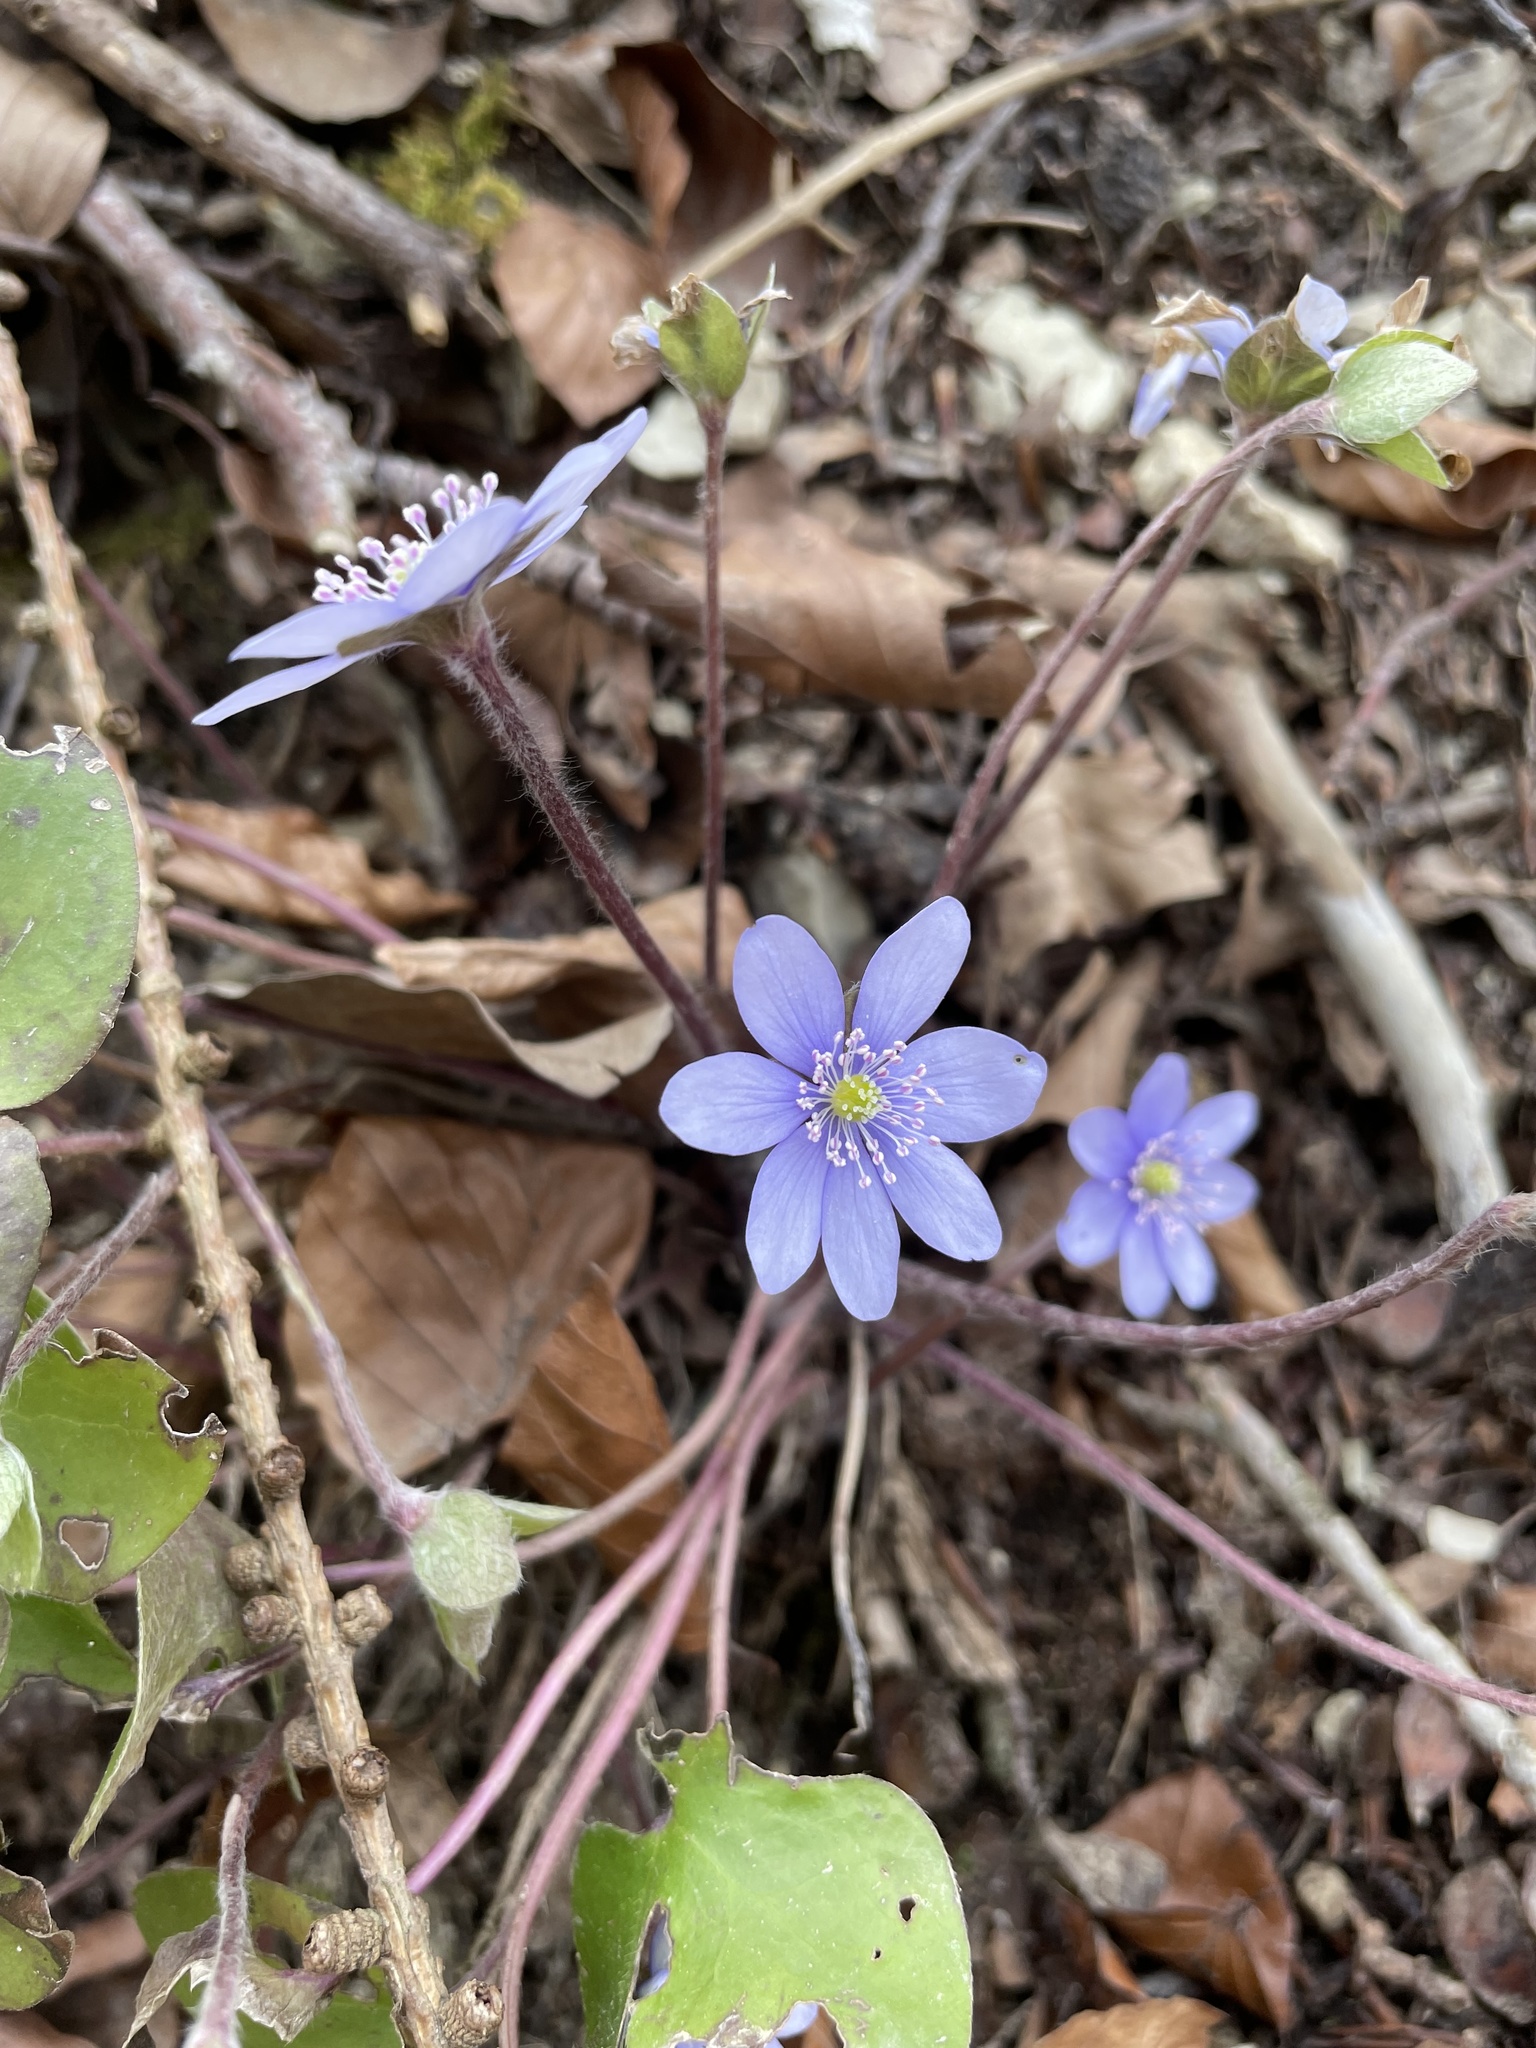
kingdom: Plantae
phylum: Tracheophyta
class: Magnoliopsida
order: Ranunculales
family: Ranunculaceae
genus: Hepatica
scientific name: Hepatica nobilis
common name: Liverleaf
